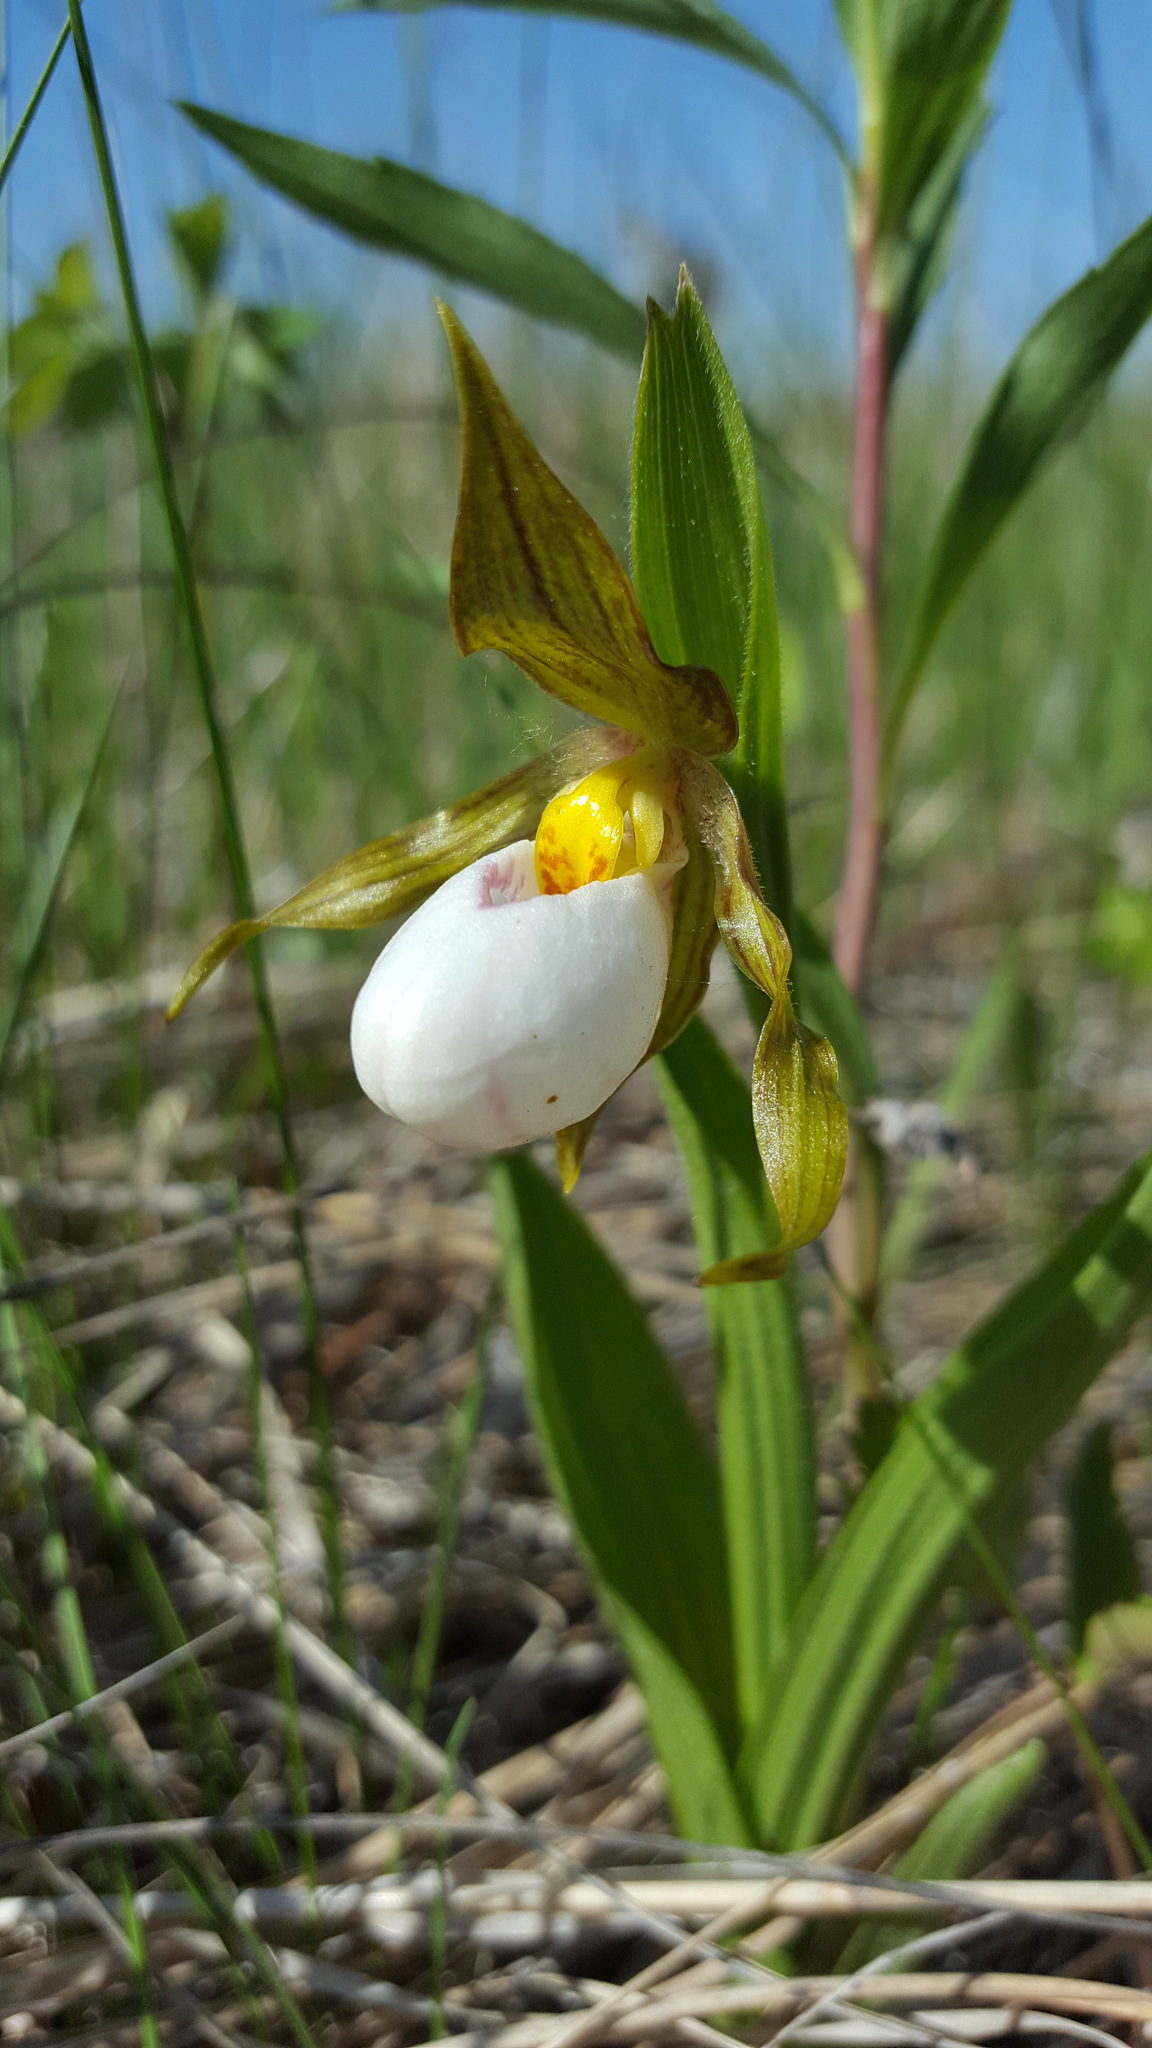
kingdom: Plantae
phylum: Tracheophyta
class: Liliopsida
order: Asparagales
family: Orchidaceae
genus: Cypripedium
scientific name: Cypripedium candidum
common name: White lady's-slipper
